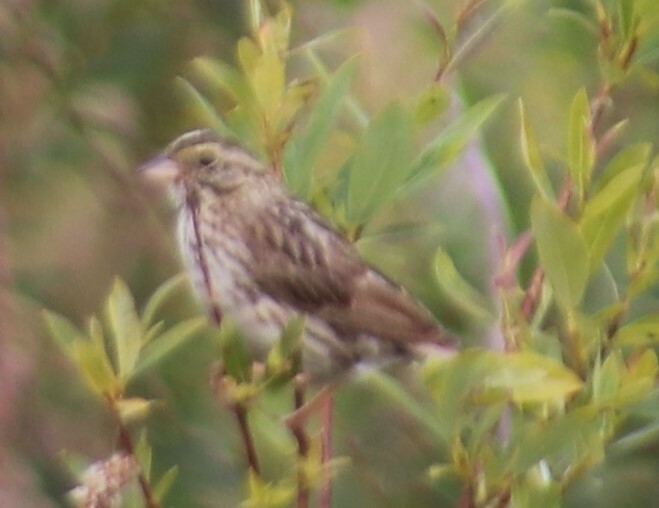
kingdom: Animalia
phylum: Chordata
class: Aves
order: Passeriformes
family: Passerellidae
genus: Passerculus
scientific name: Passerculus sandwichensis
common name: Savannah sparrow
